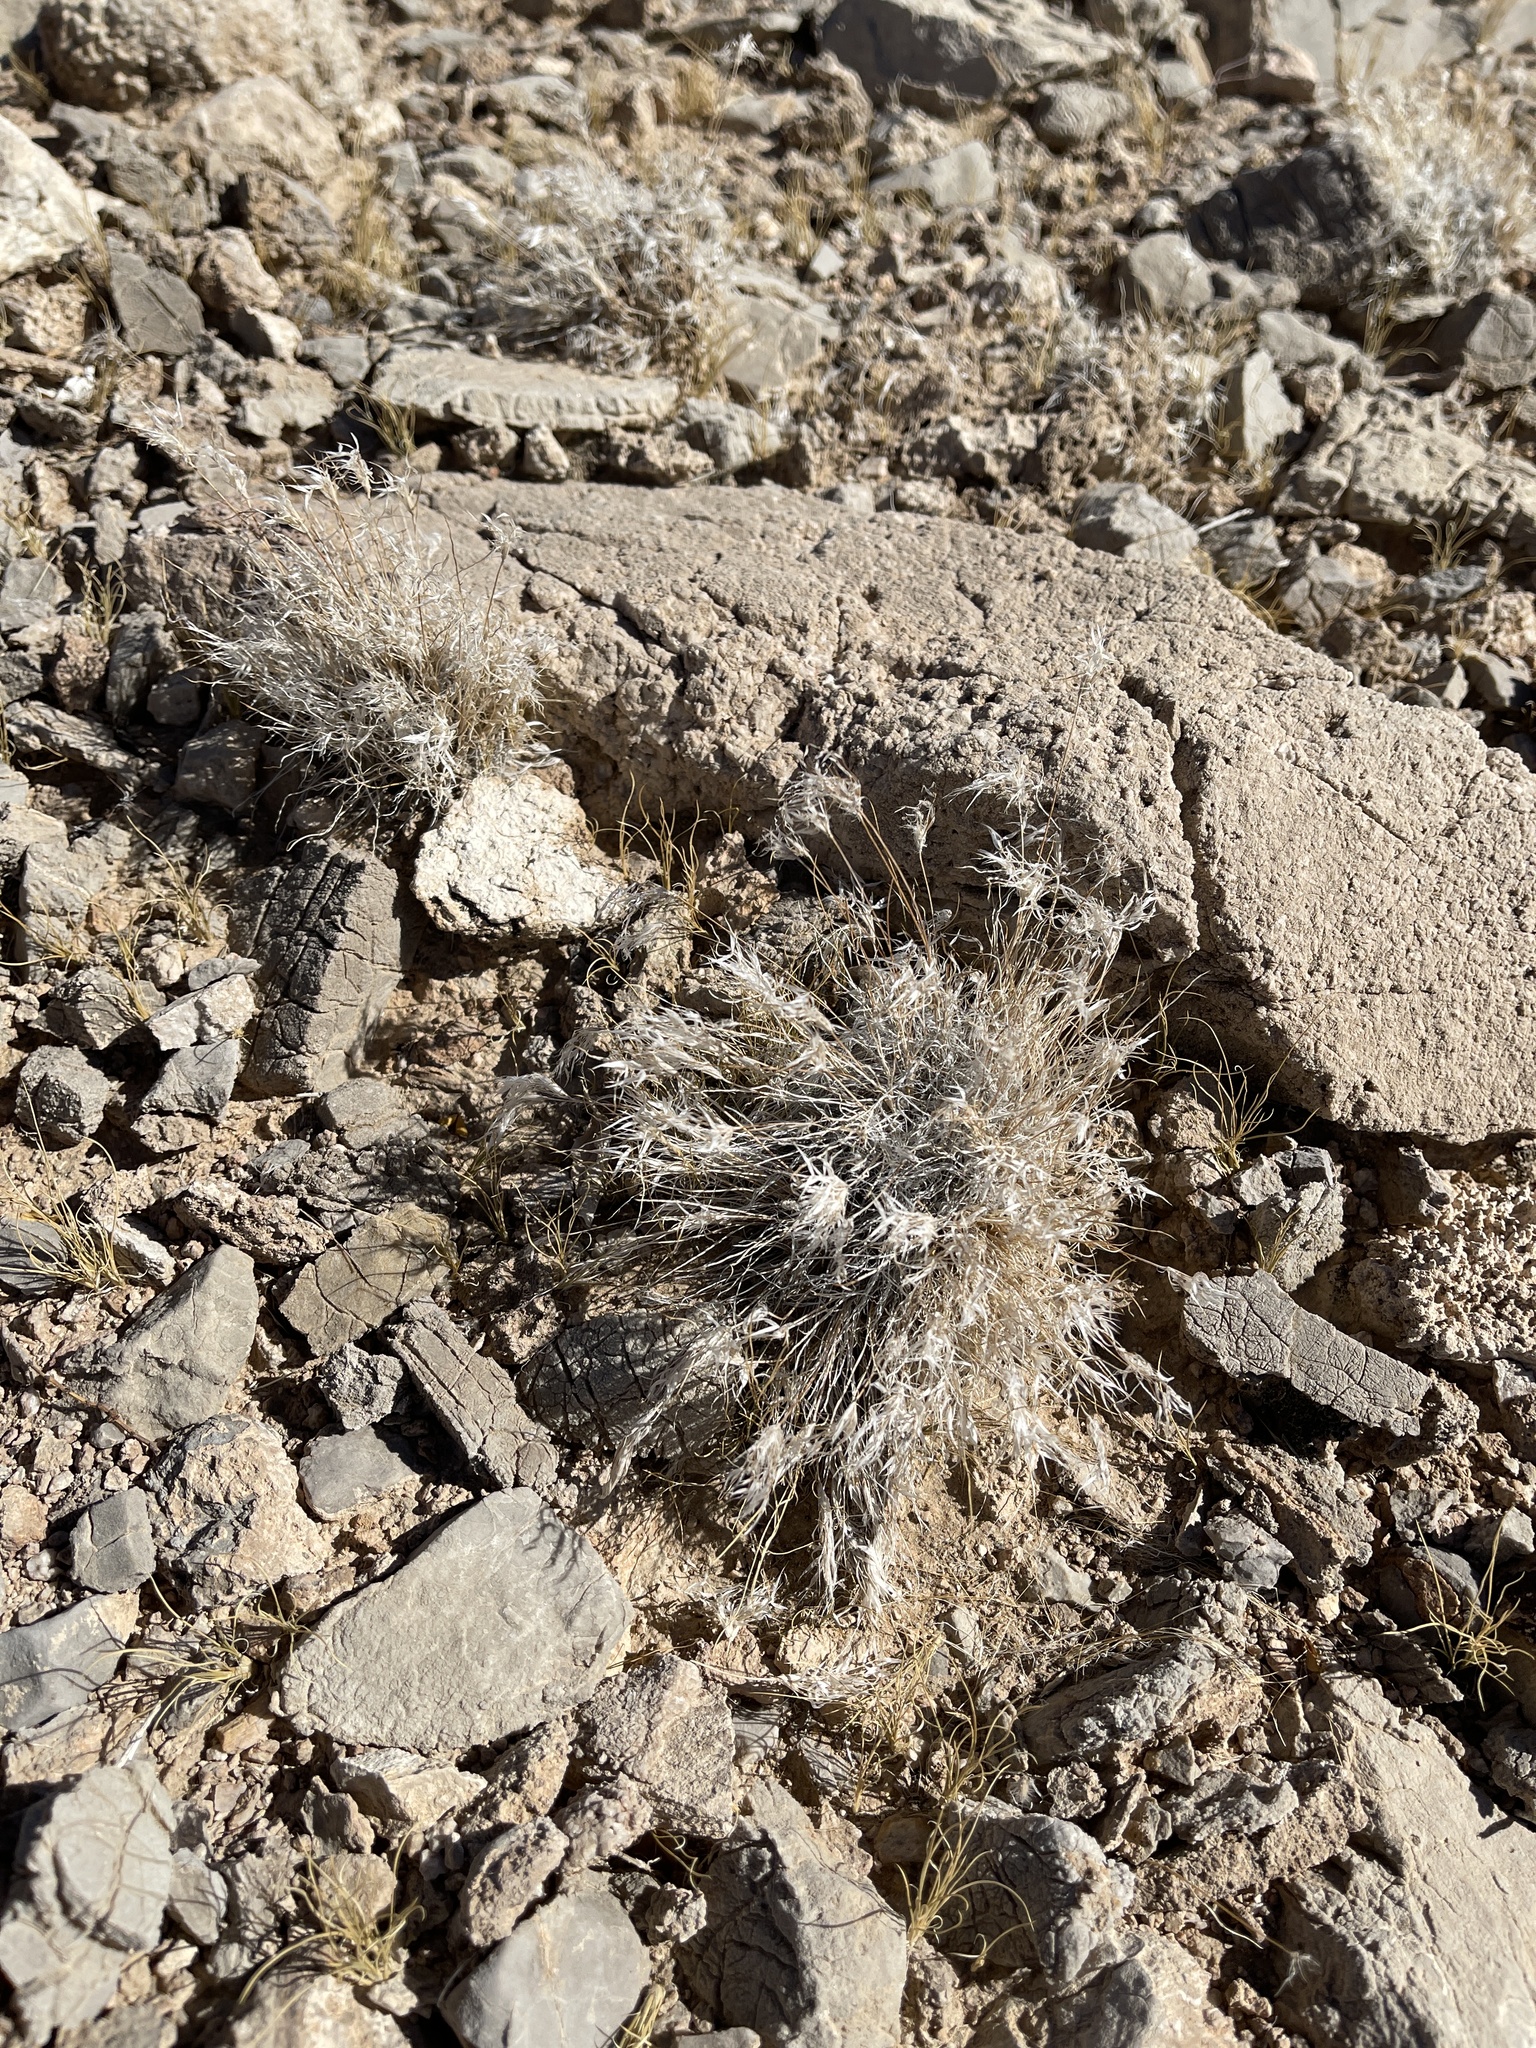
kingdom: Plantae
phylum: Tracheophyta
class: Liliopsida
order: Poales
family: Poaceae
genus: Dasyochloa
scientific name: Dasyochloa pulchella
